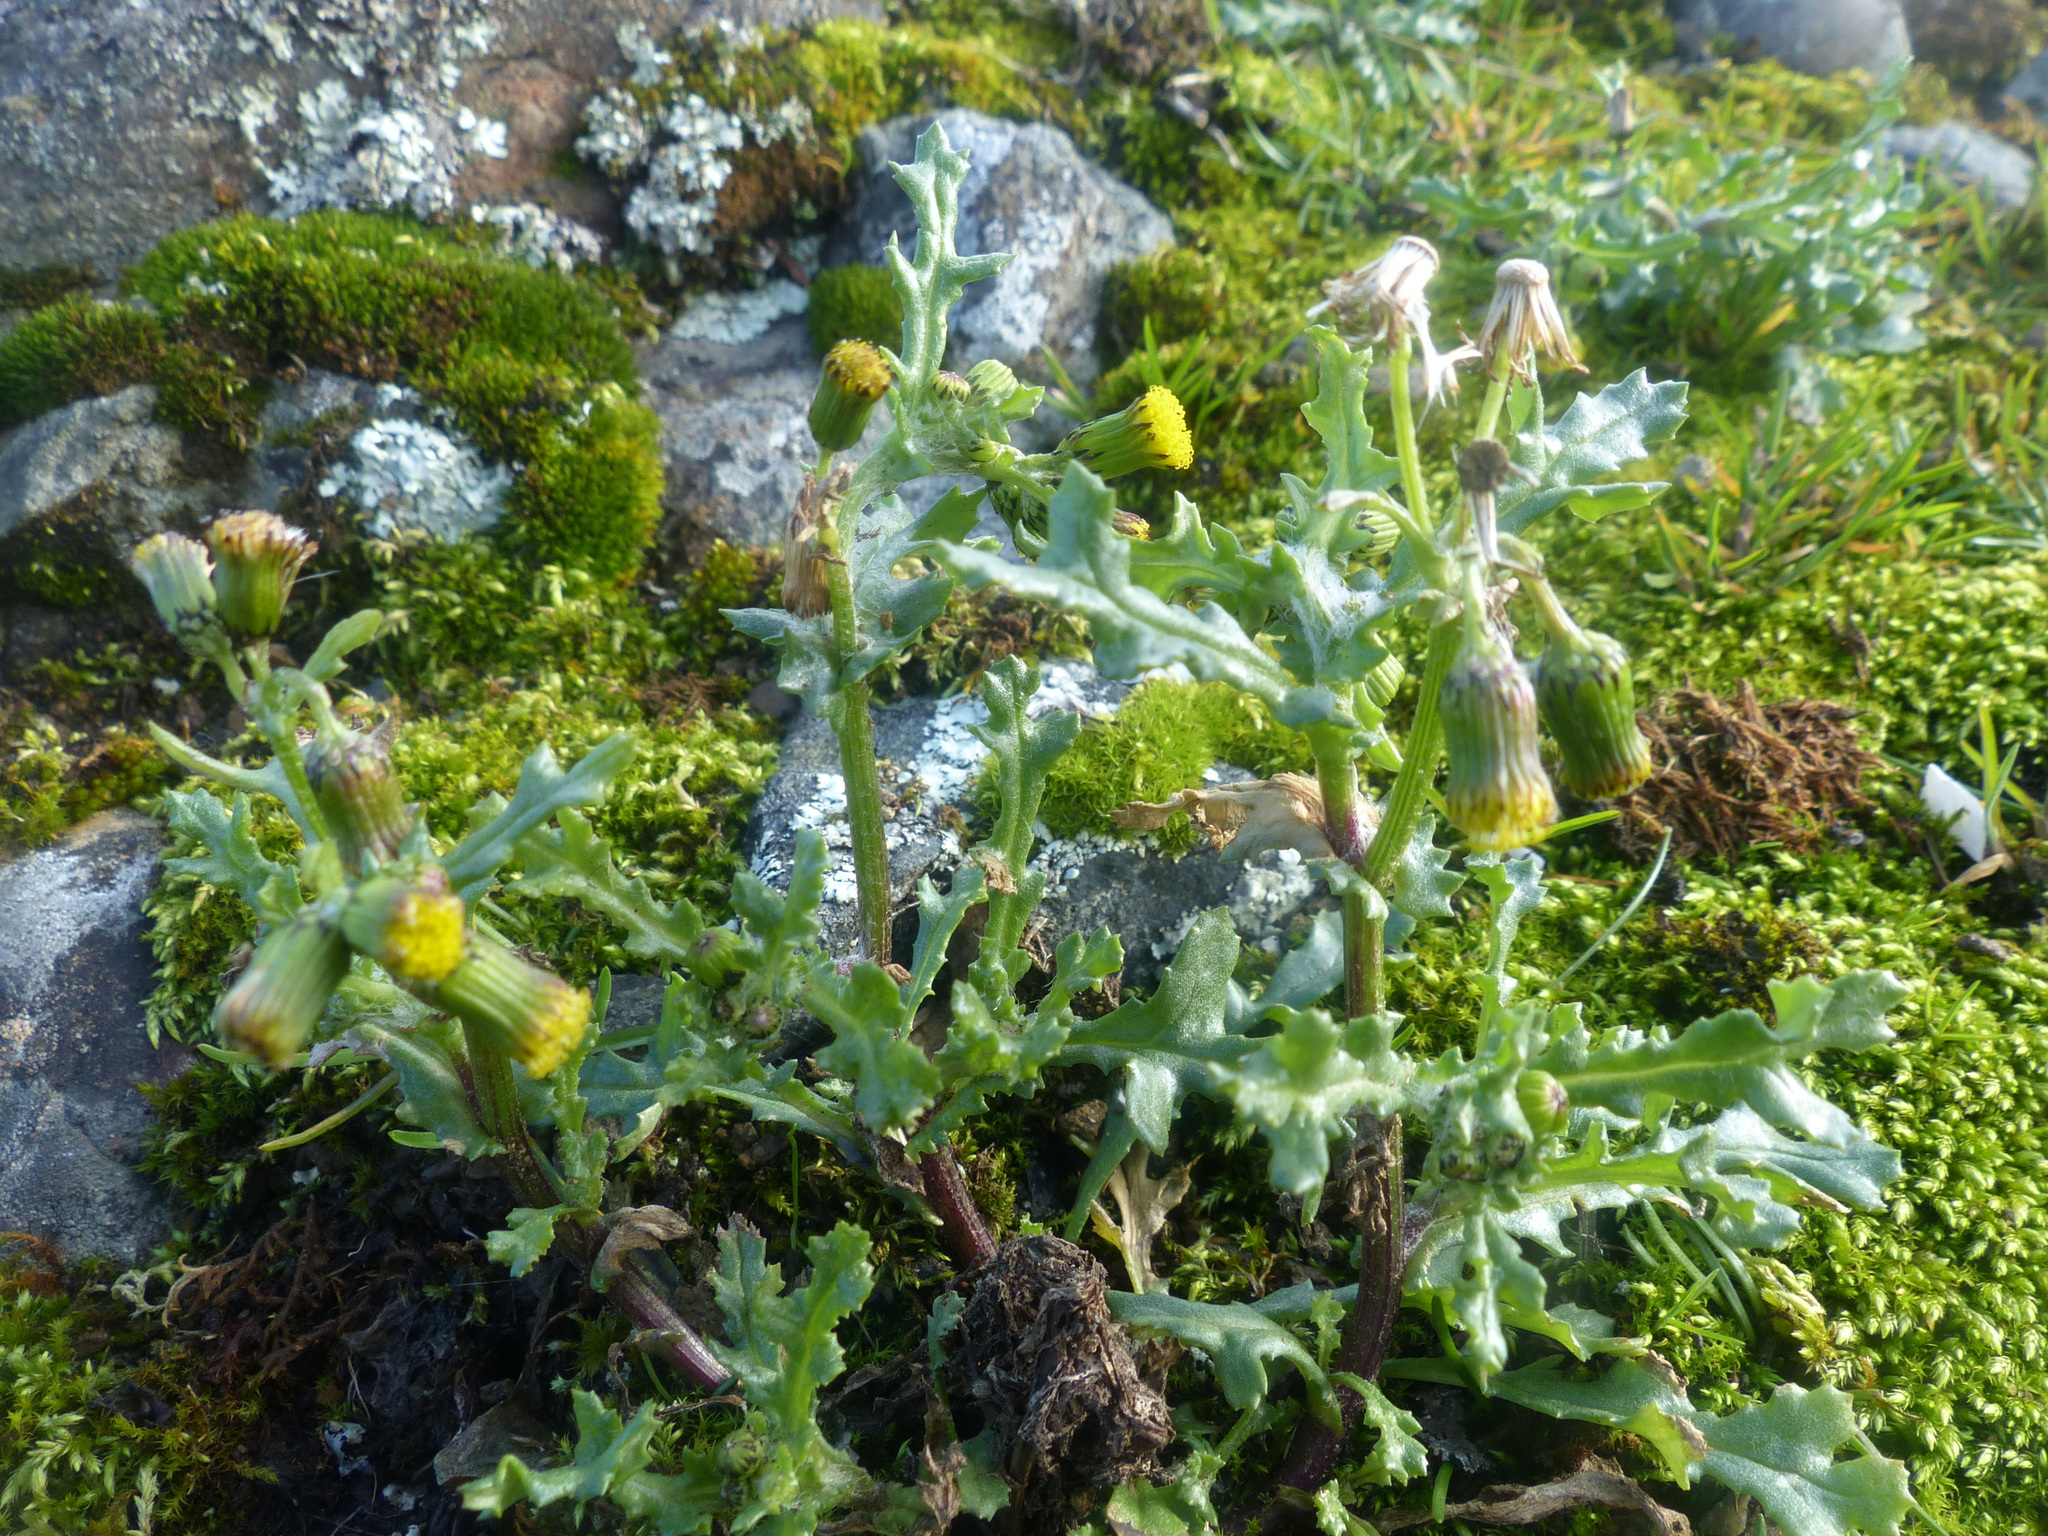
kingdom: Plantae
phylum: Tracheophyta
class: Magnoliopsida
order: Asterales
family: Asteraceae
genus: Senecio
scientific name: Senecio vulgaris
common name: Old-man-in-the-spring
